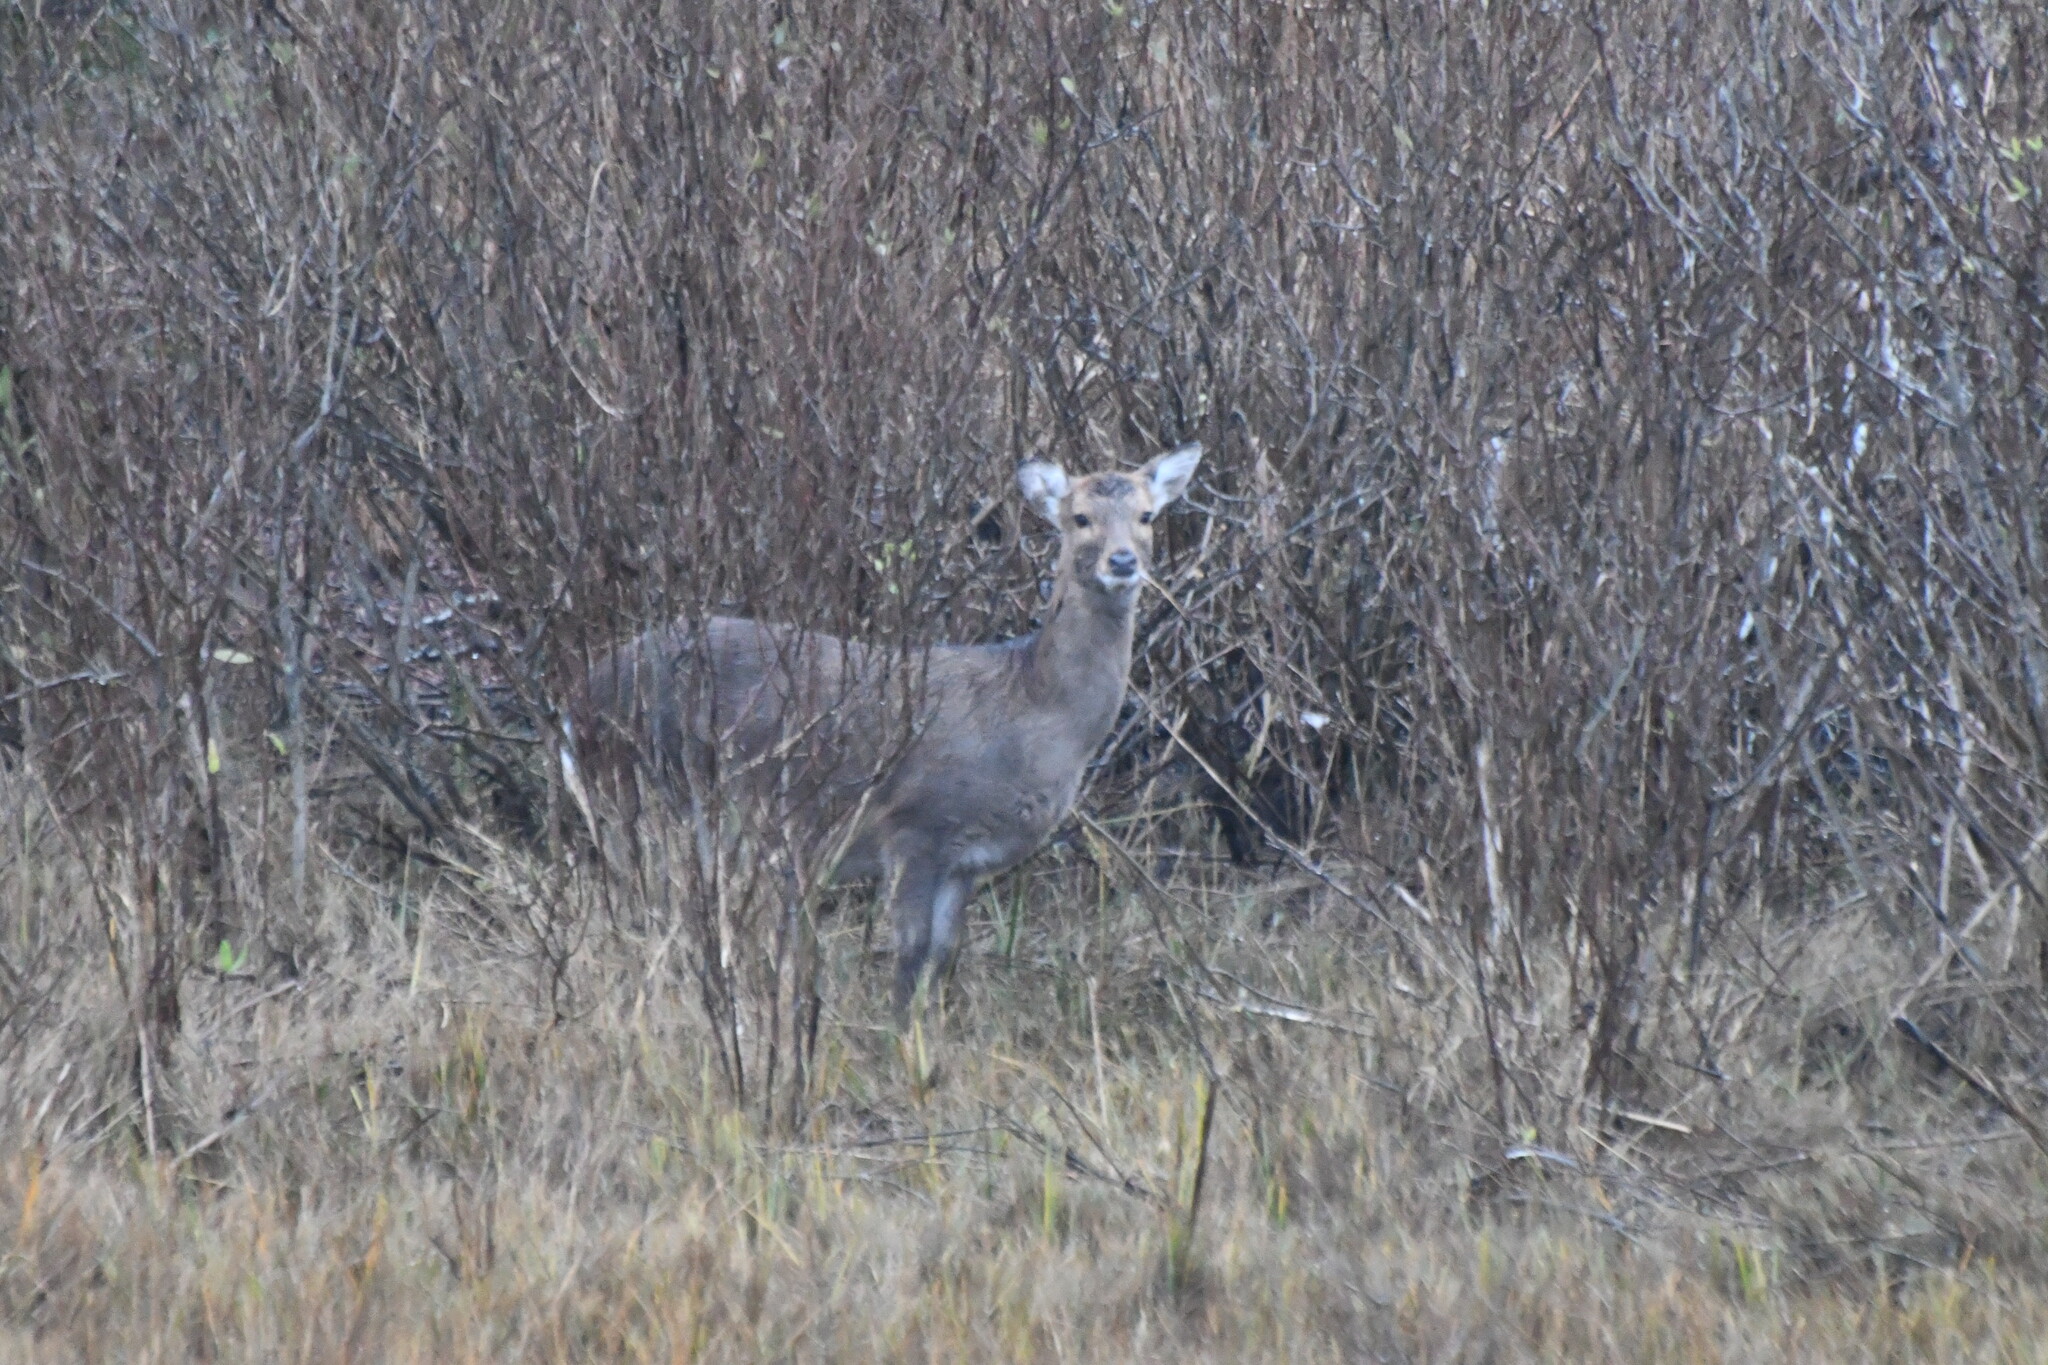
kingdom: Animalia
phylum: Chordata
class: Mammalia
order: Artiodactyla
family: Cervidae
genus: Cervus
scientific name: Cervus nippon
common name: Sika deer
